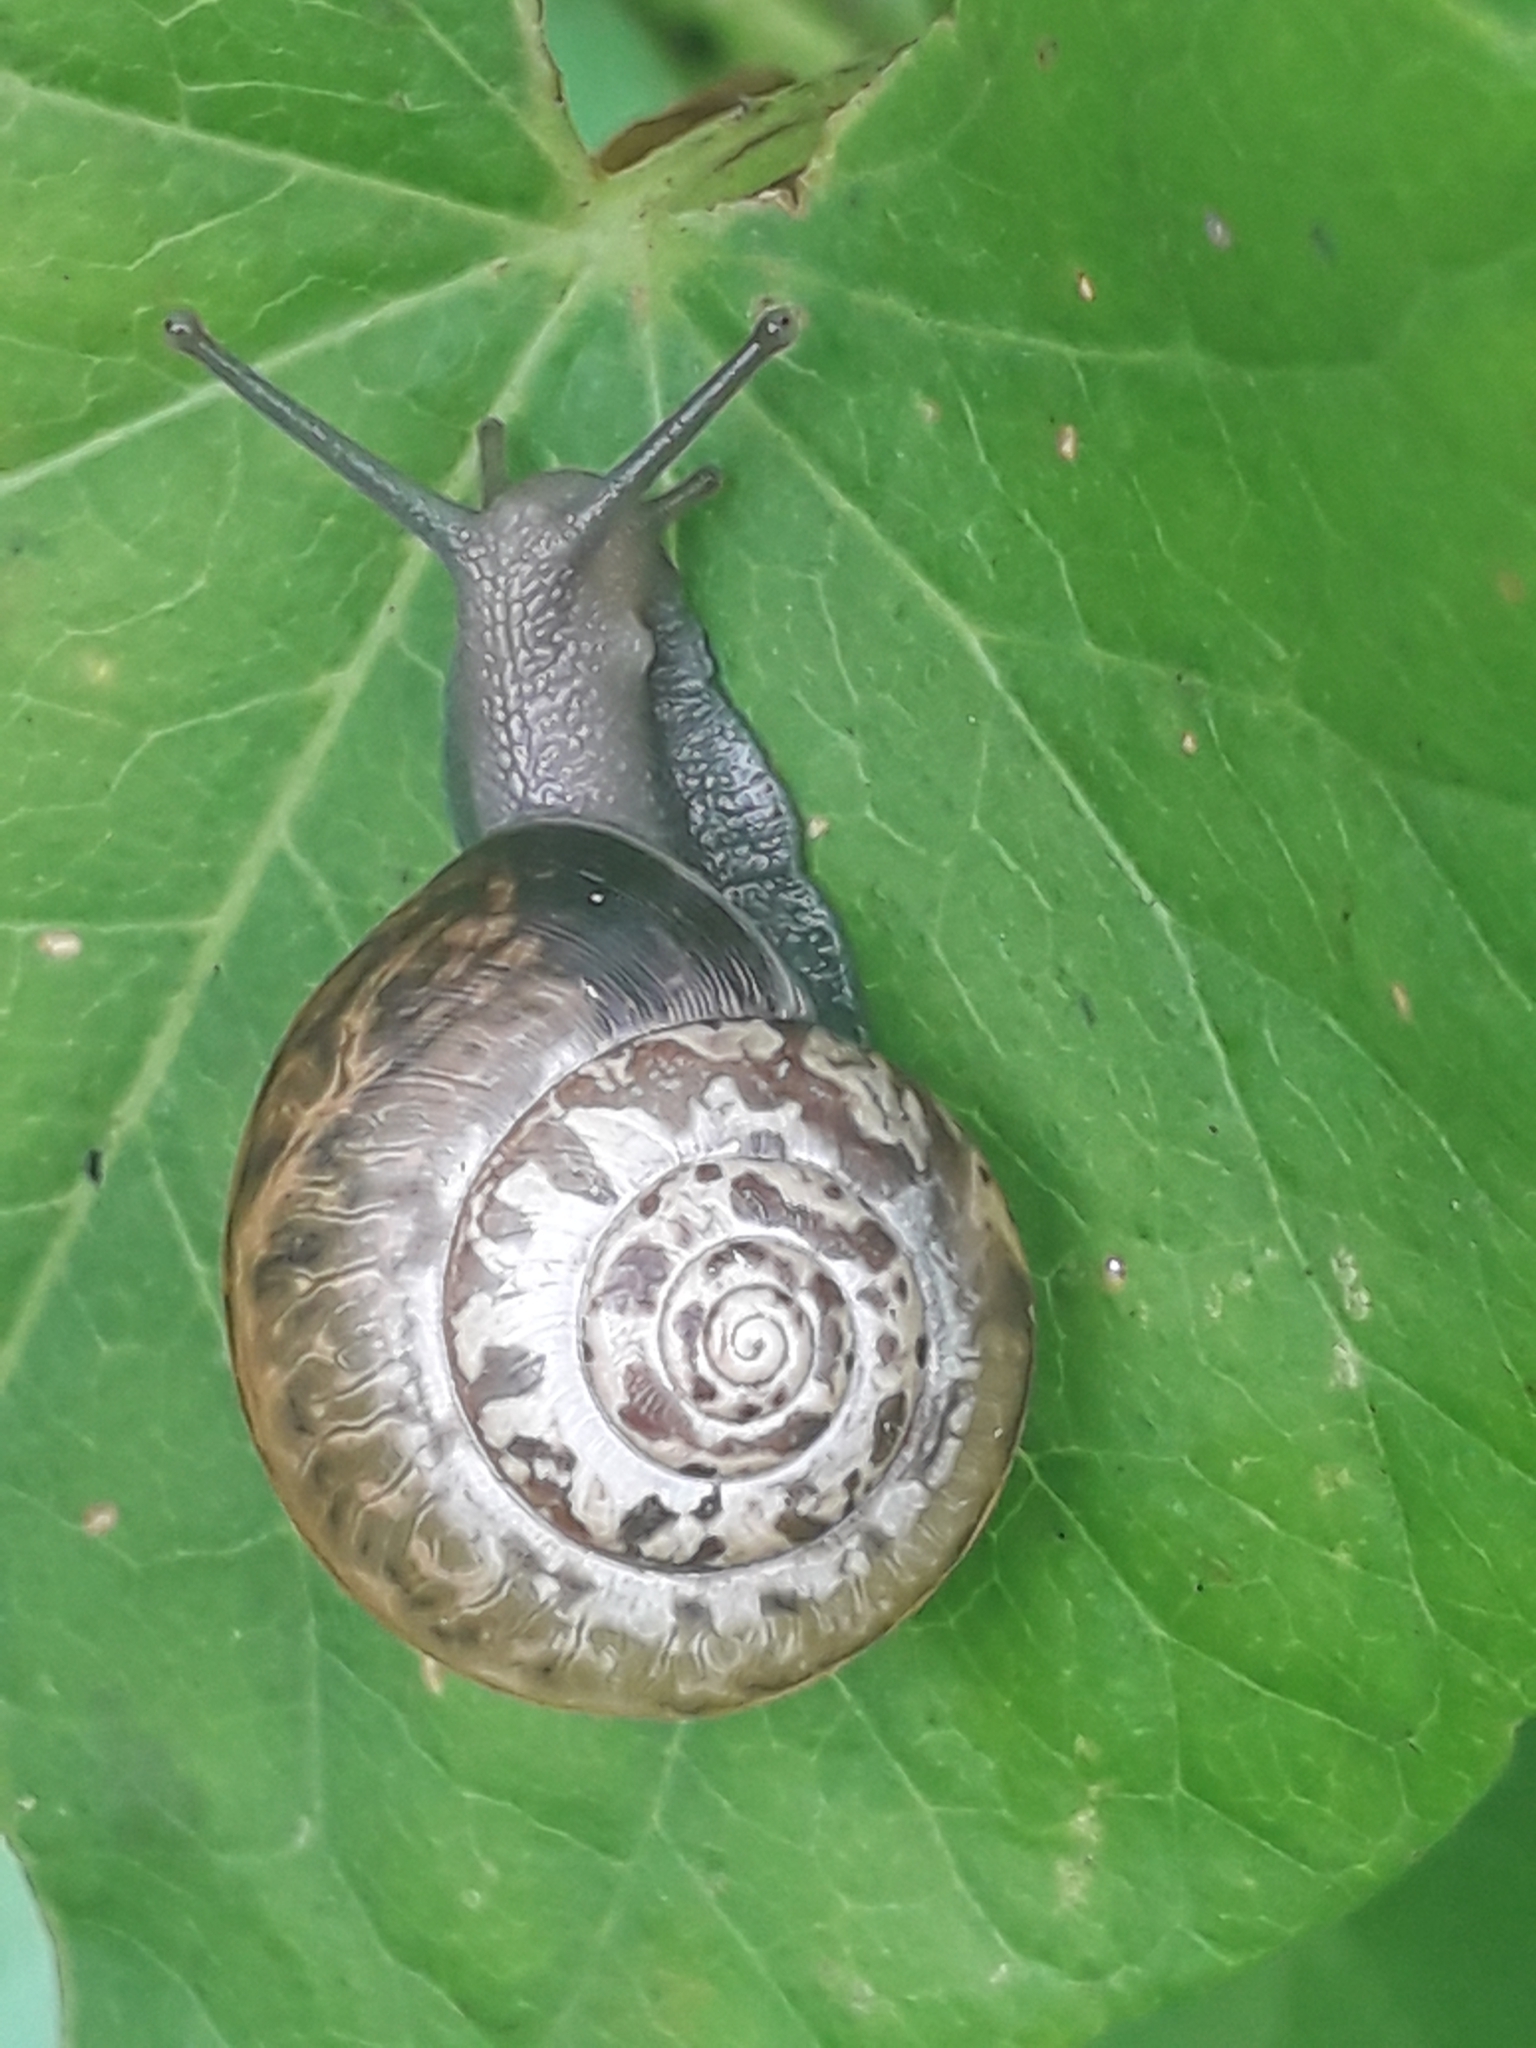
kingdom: Animalia
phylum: Mollusca
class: Gastropoda
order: Stylommatophora
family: Hygromiidae
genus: Monacha
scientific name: Monacha cantiana
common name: Kentish snail
